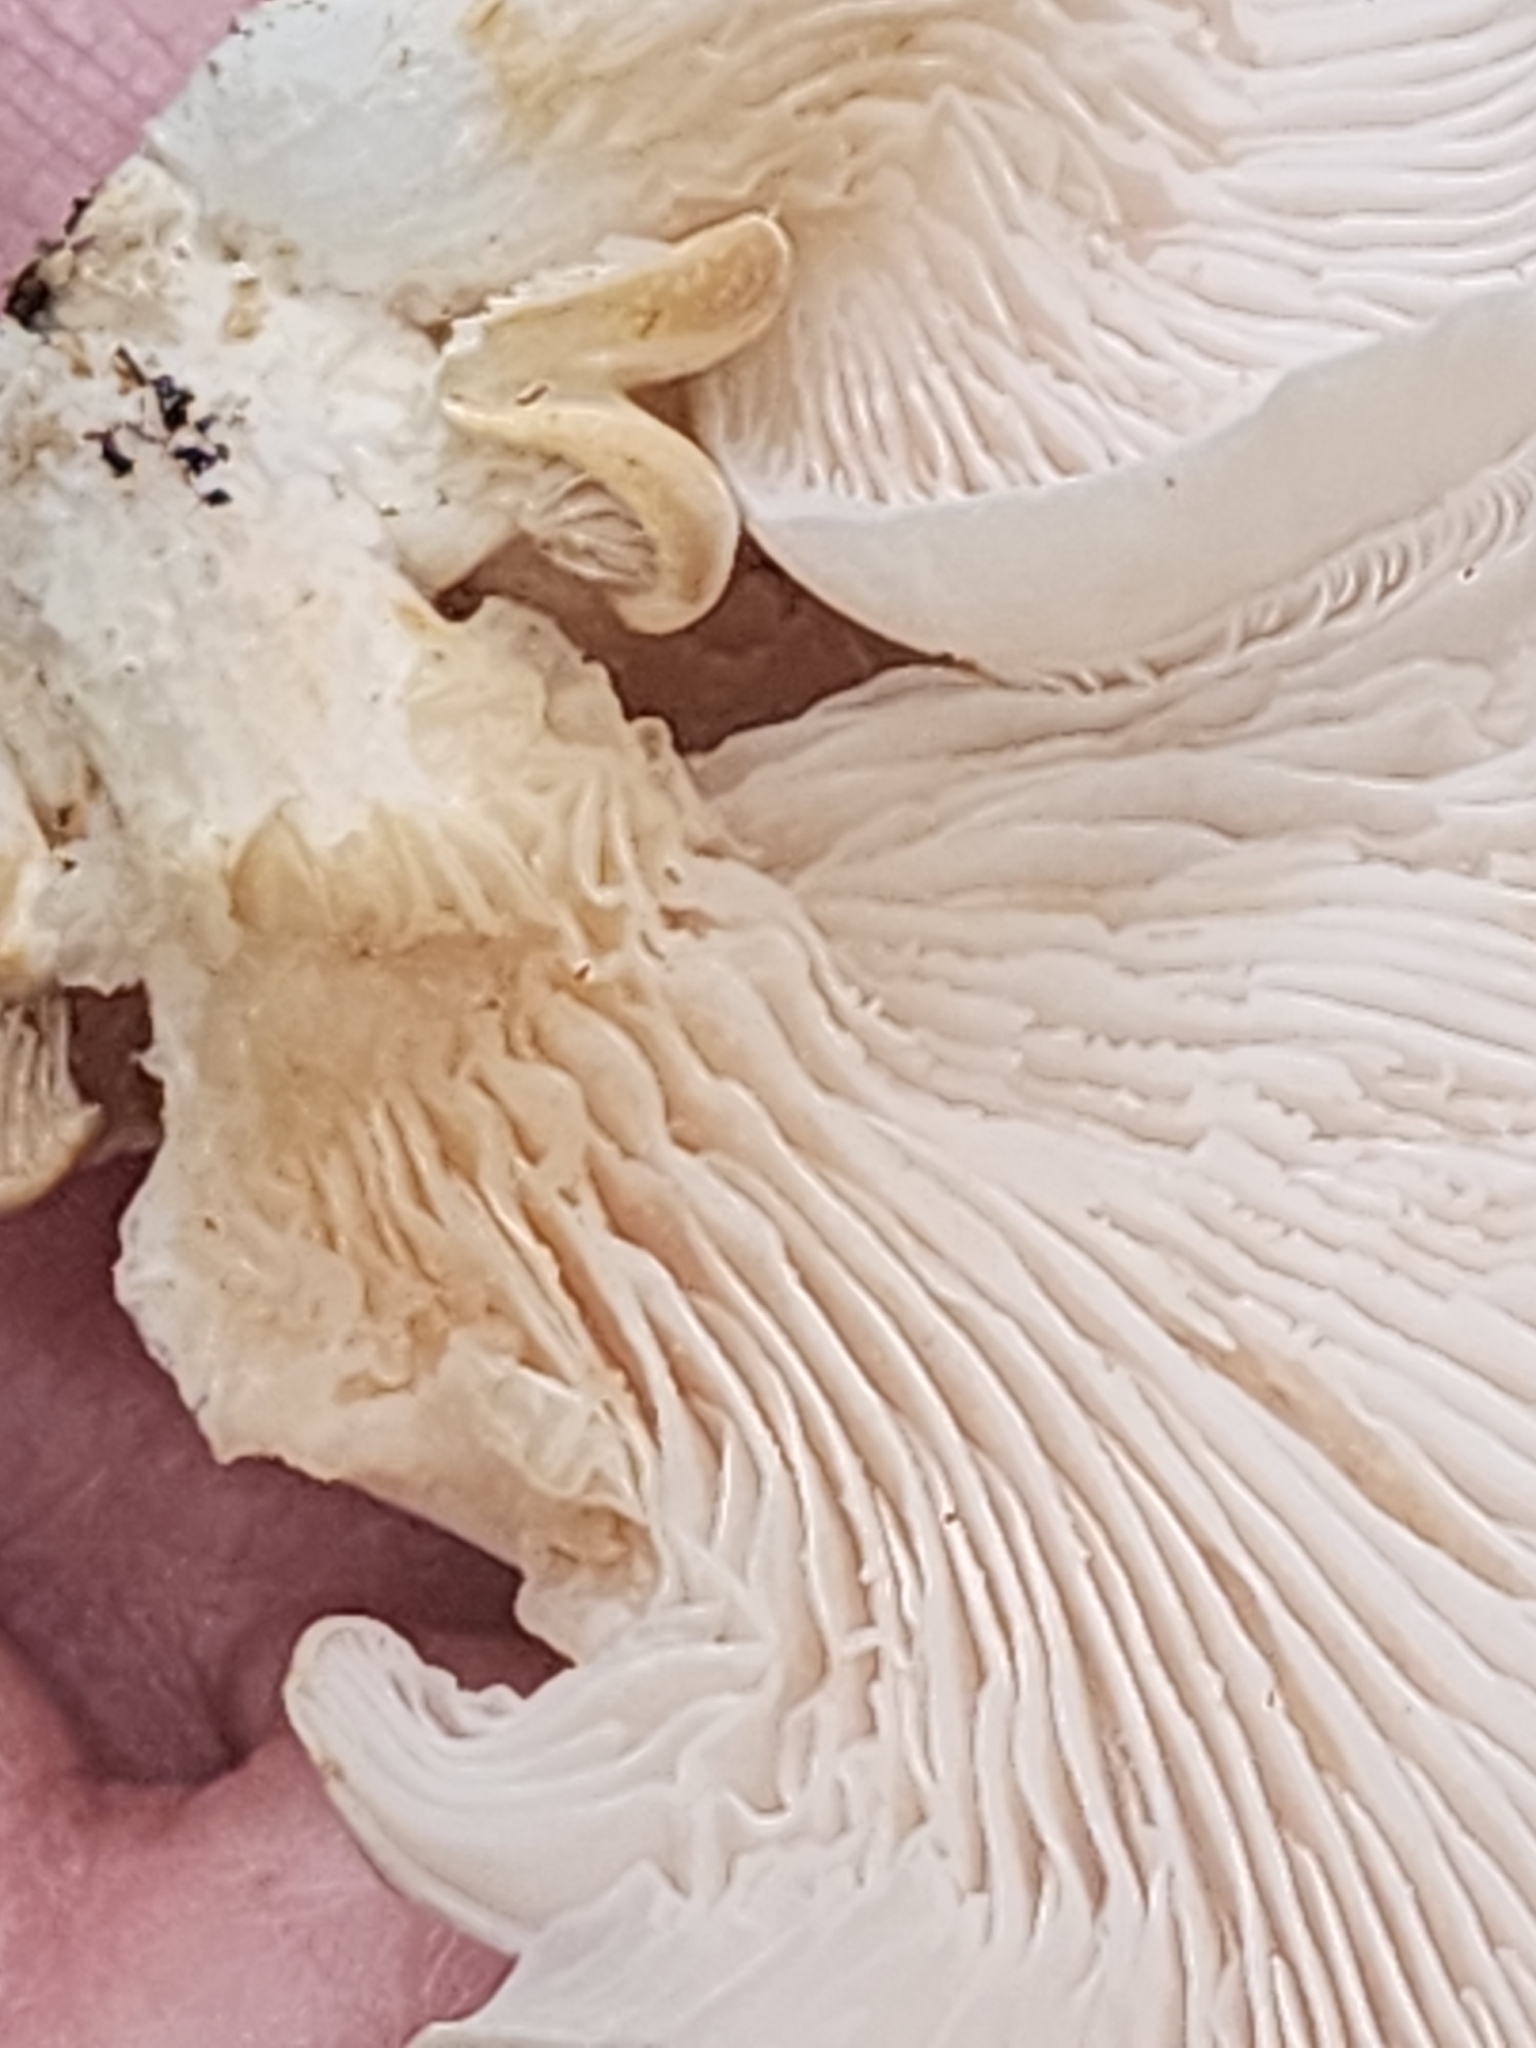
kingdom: Fungi
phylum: Basidiomycota
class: Agaricomycetes
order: Agaricales
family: Pleurotaceae
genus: Pleurotus
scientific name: Pleurotus pulmonarius
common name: Pale oyster
